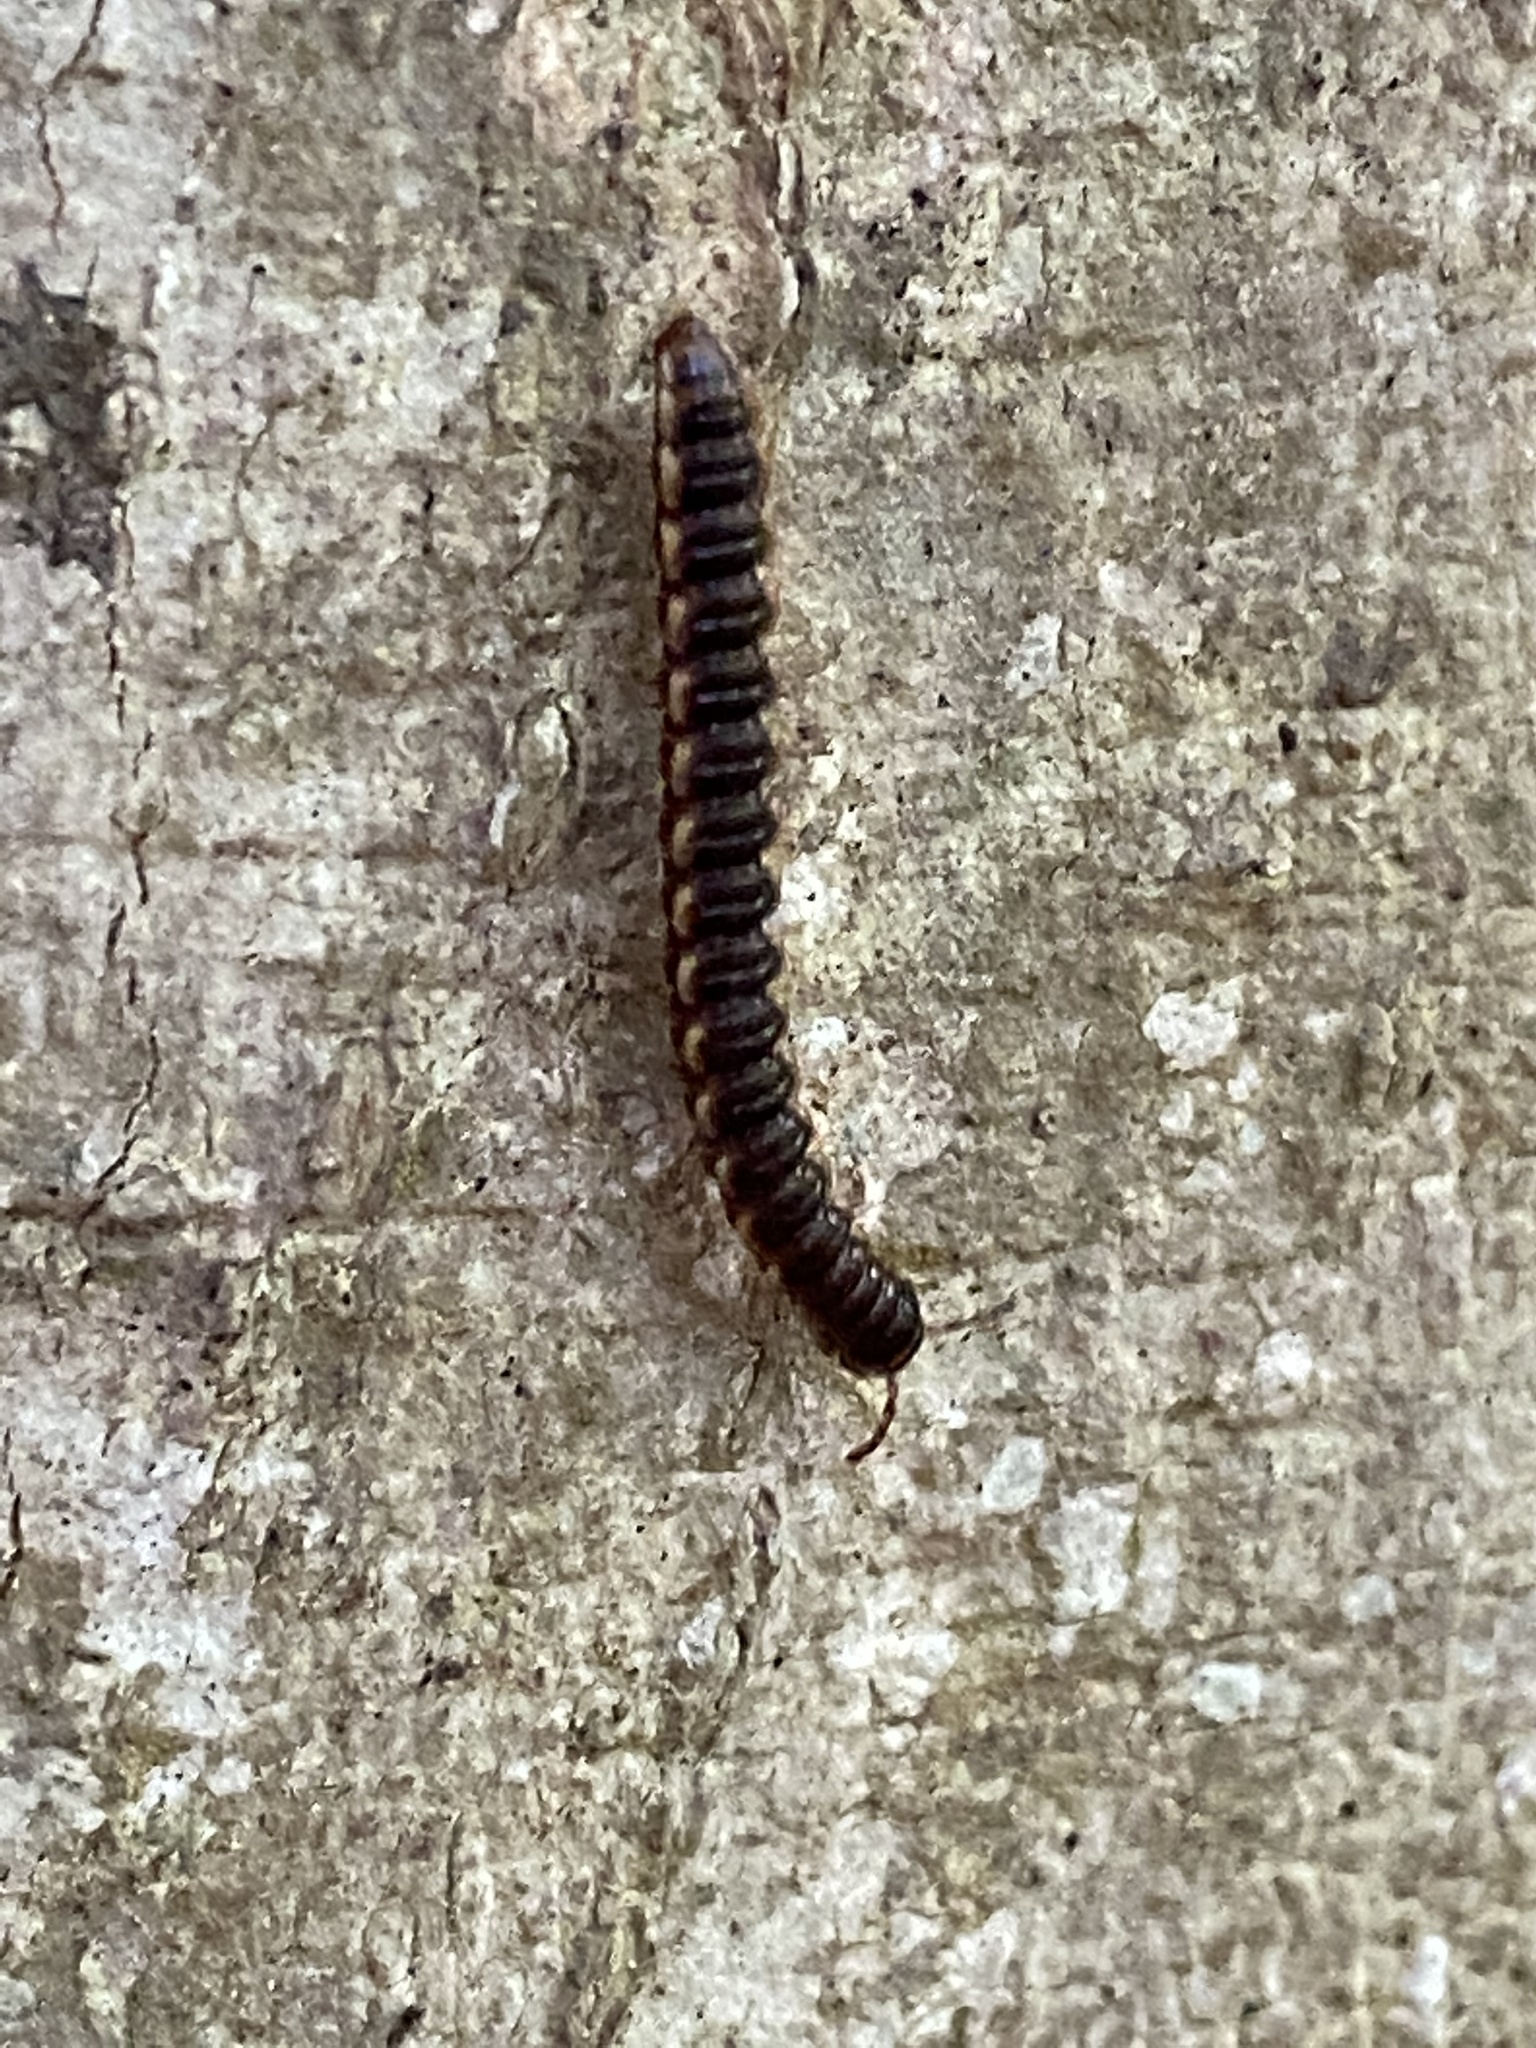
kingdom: Animalia
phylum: Arthropoda
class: Diplopoda
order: Polydesmida
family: Paradoxosomatidae
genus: Oxidus
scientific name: Oxidus gracilis
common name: Greenhouse millipede
